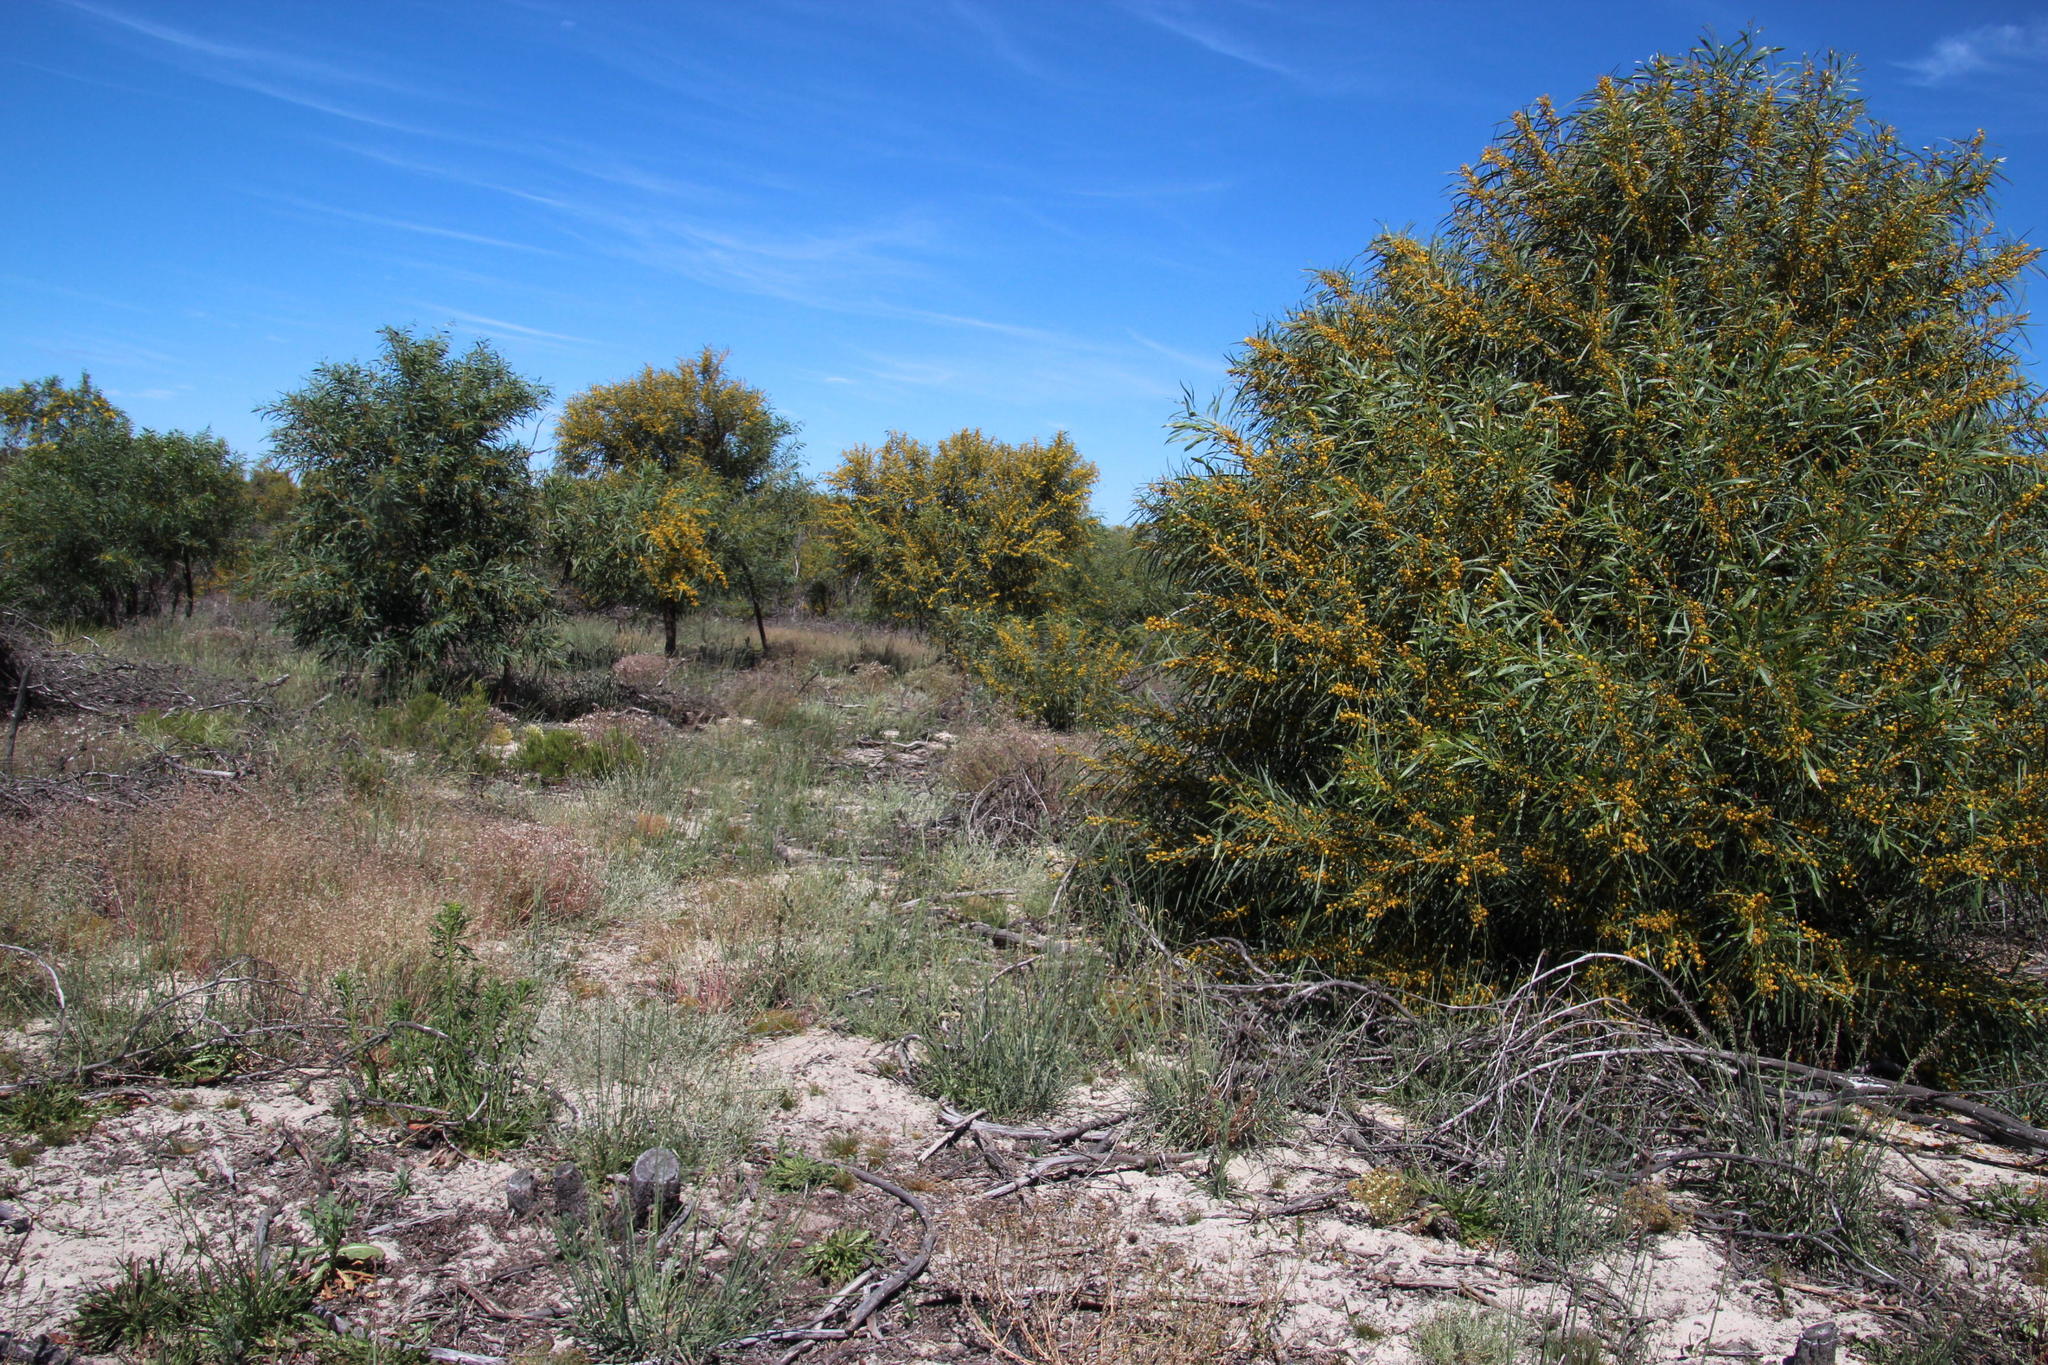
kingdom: Plantae
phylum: Tracheophyta
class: Magnoliopsida
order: Fabales
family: Fabaceae
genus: Acacia
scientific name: Acacia saligna
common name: Orange wattle
